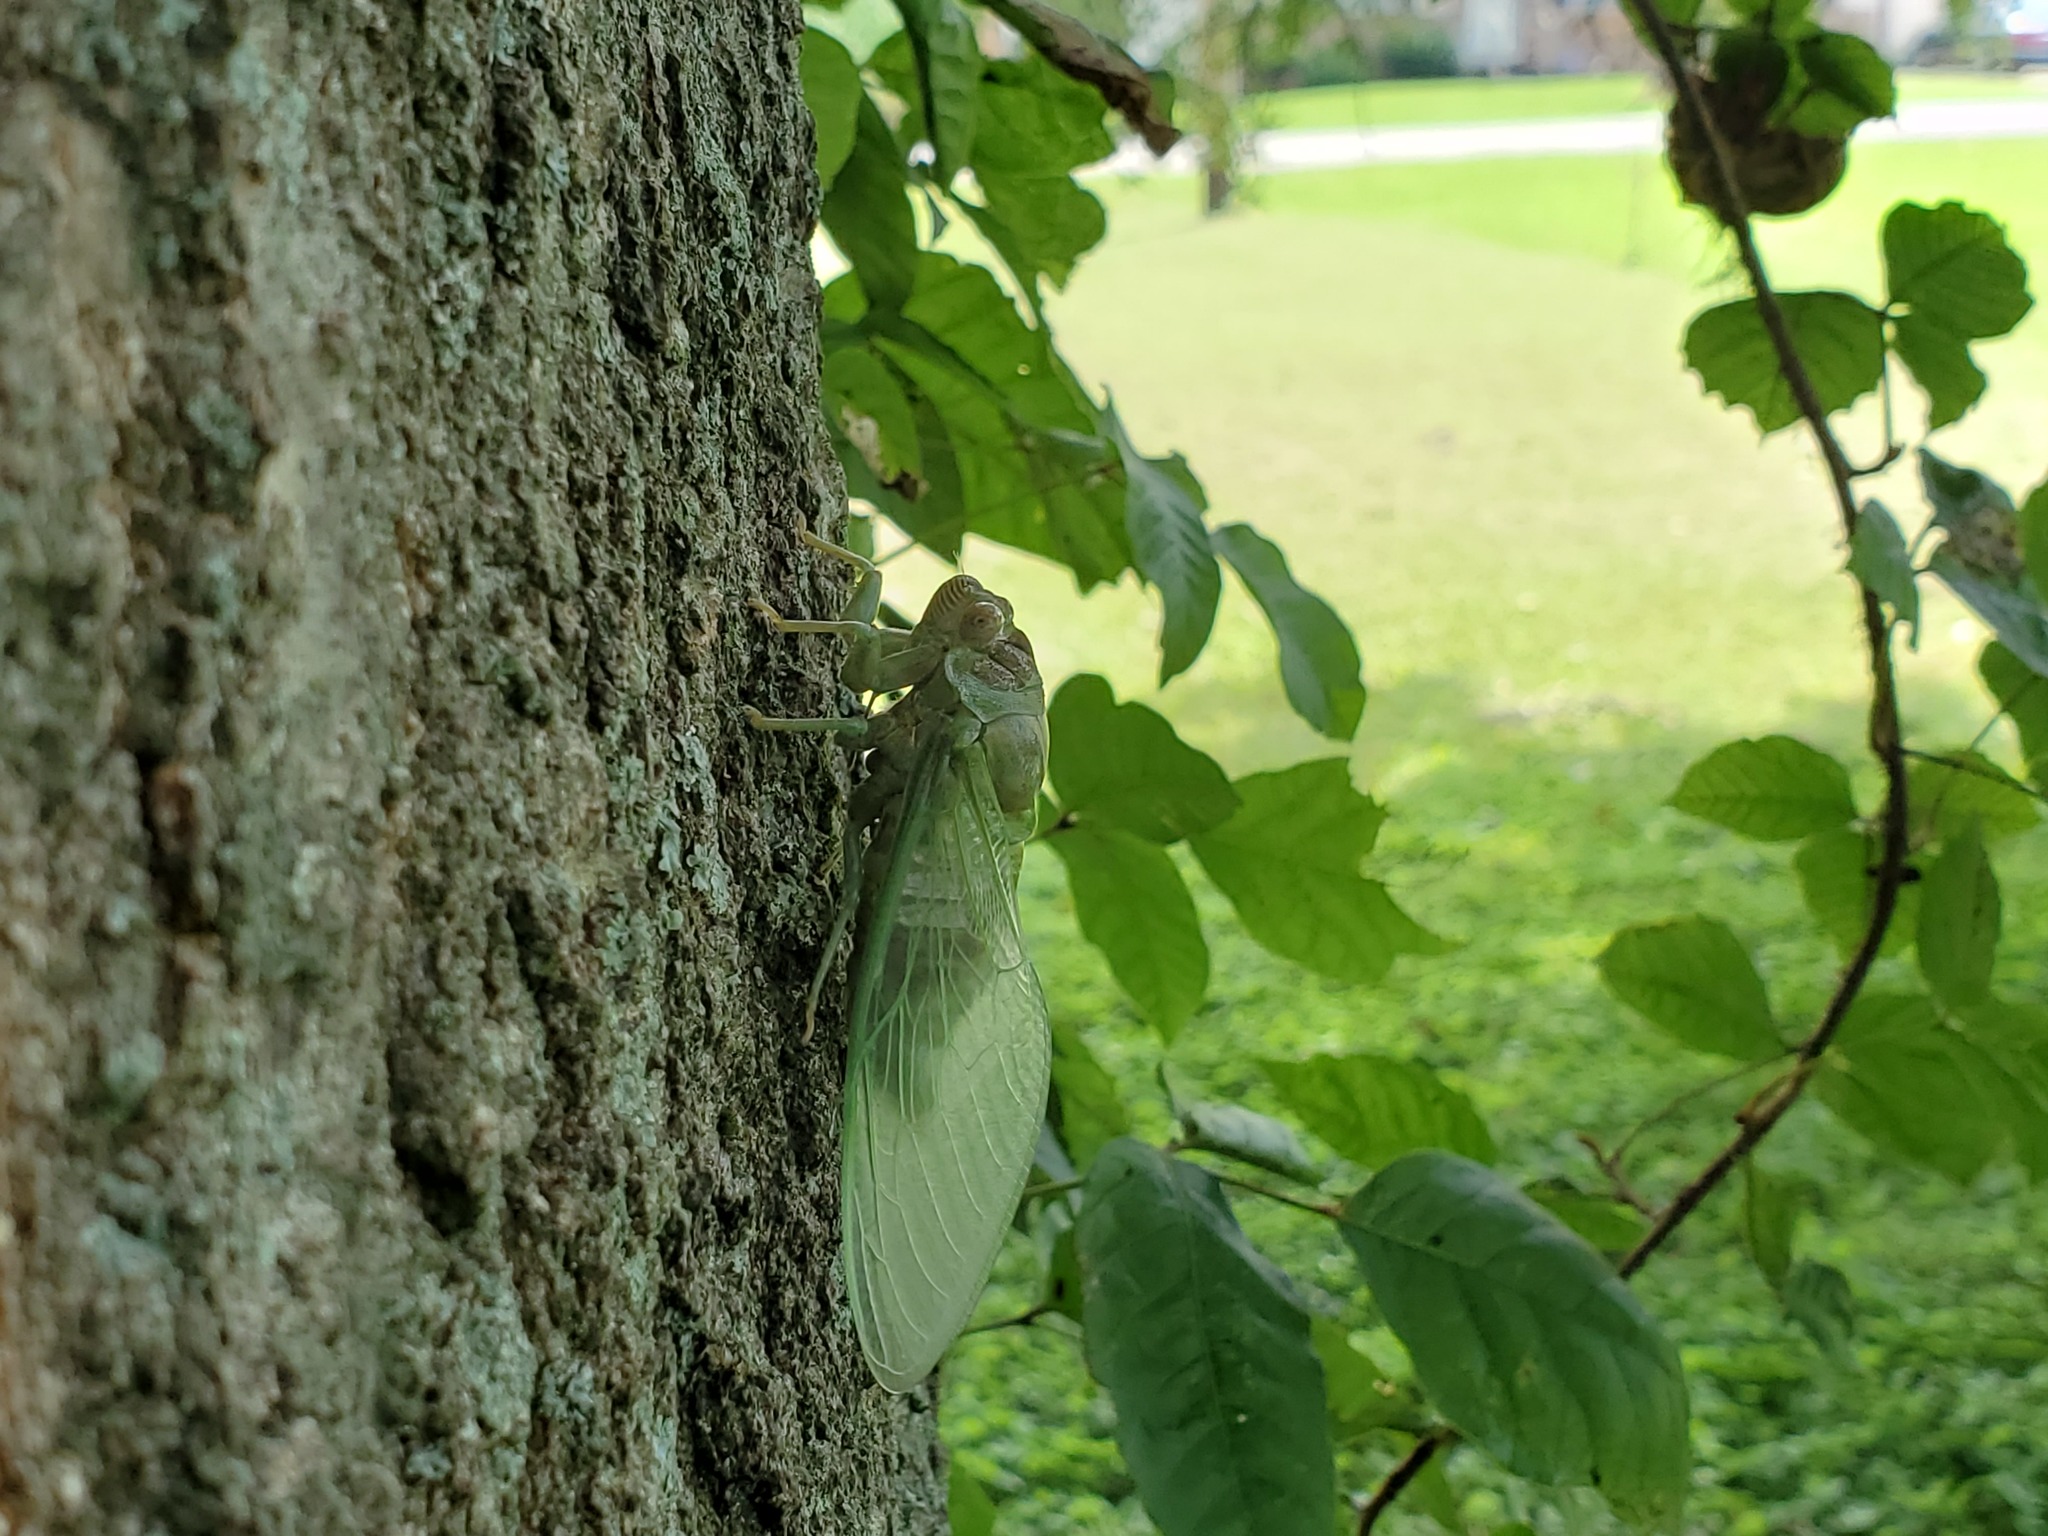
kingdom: Animalia
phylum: Arthropoda
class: Insecta
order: Hemiptera
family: Cicadidae
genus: Diceroprocta
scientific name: Diceroprocta grossa
